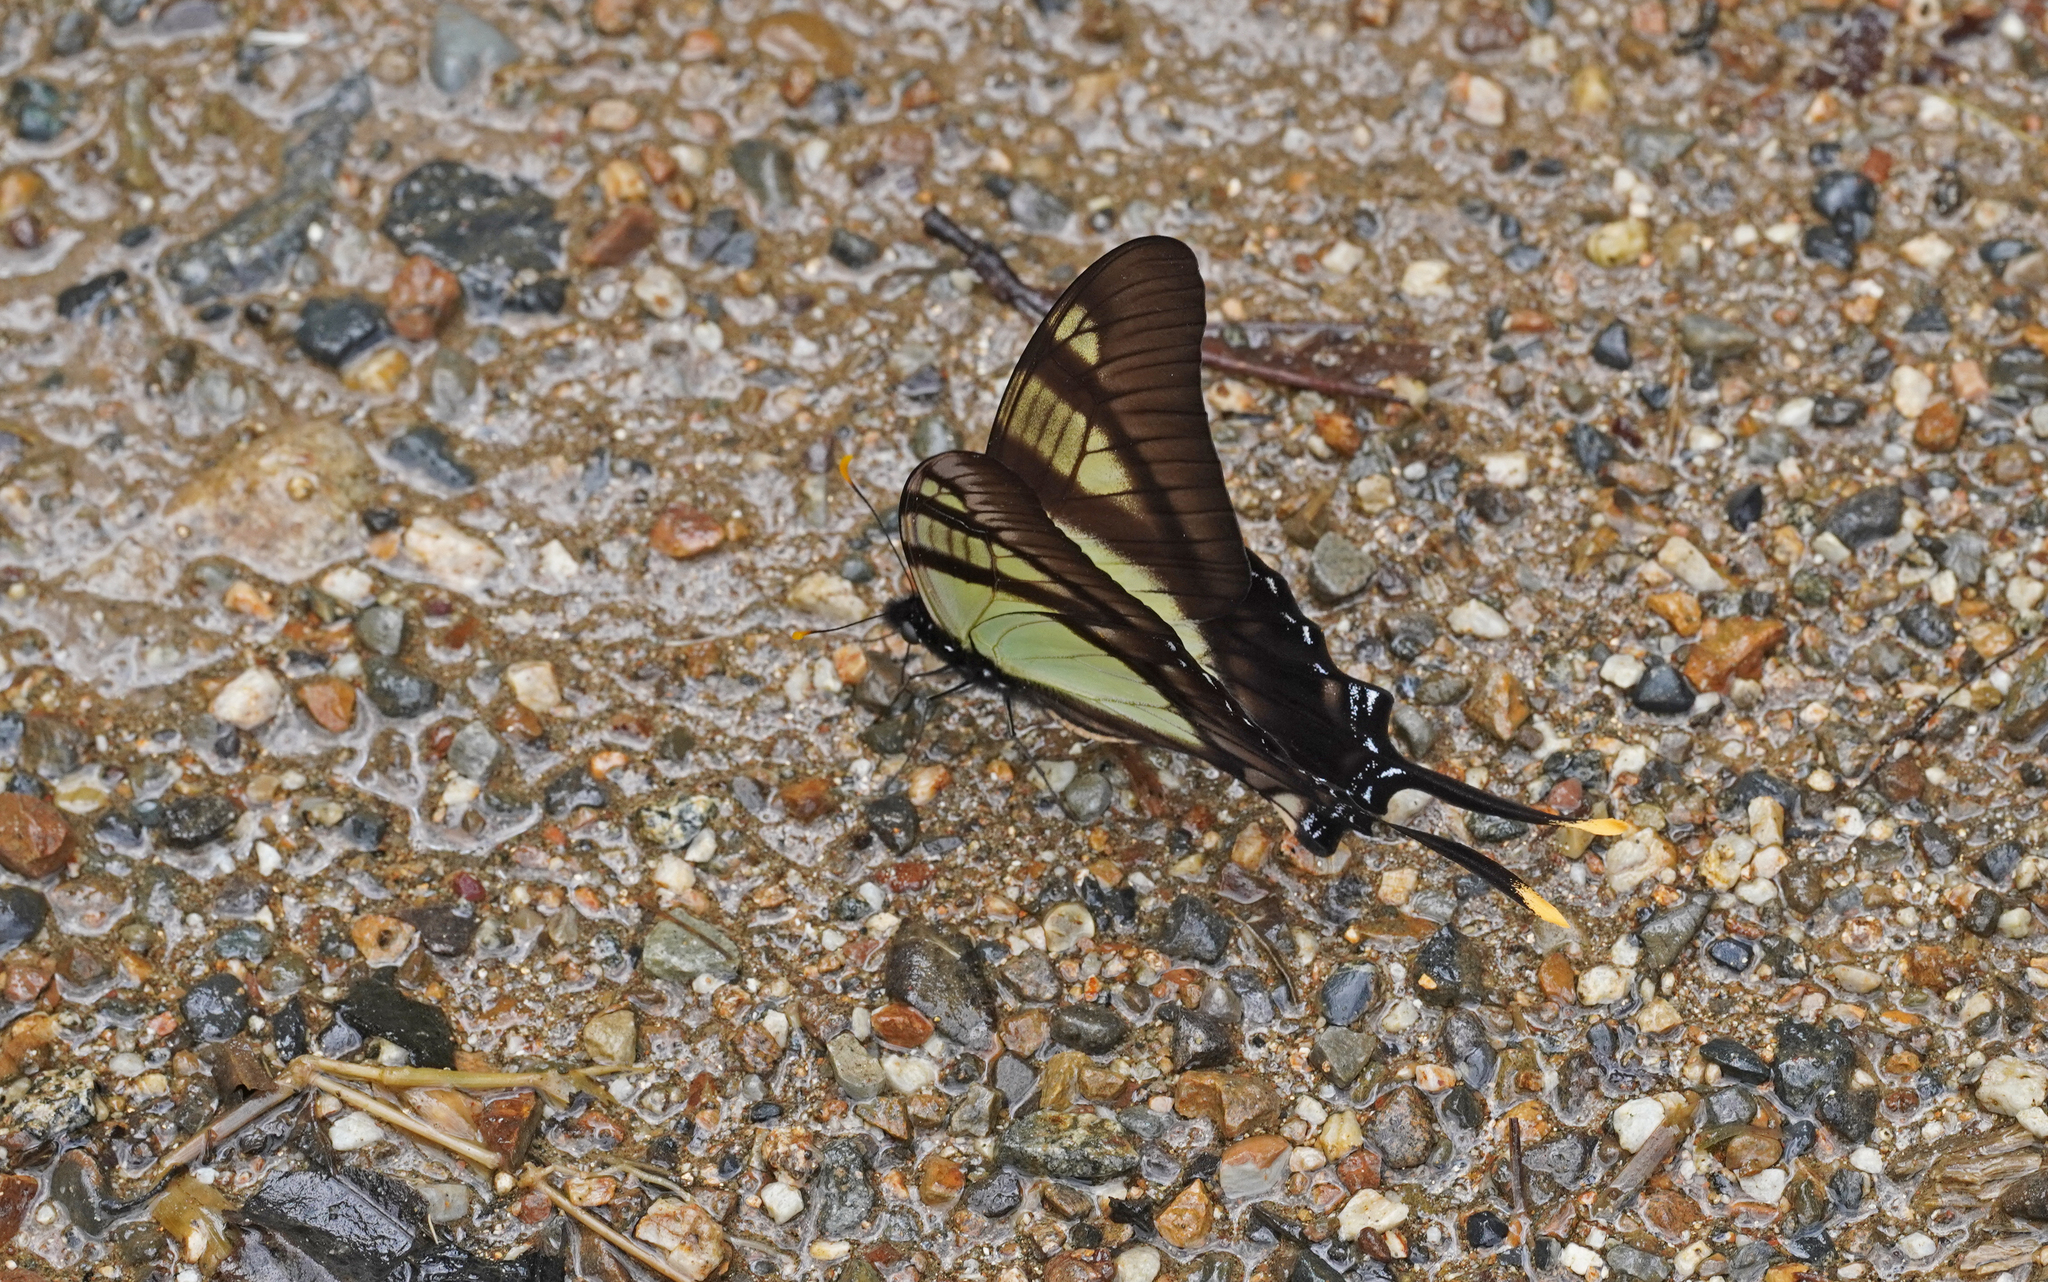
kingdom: Animalia
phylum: Arthropoda
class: Insecta
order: Lepidoptera
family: Papilionidae
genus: Eurytides
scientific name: Eurytides serville
